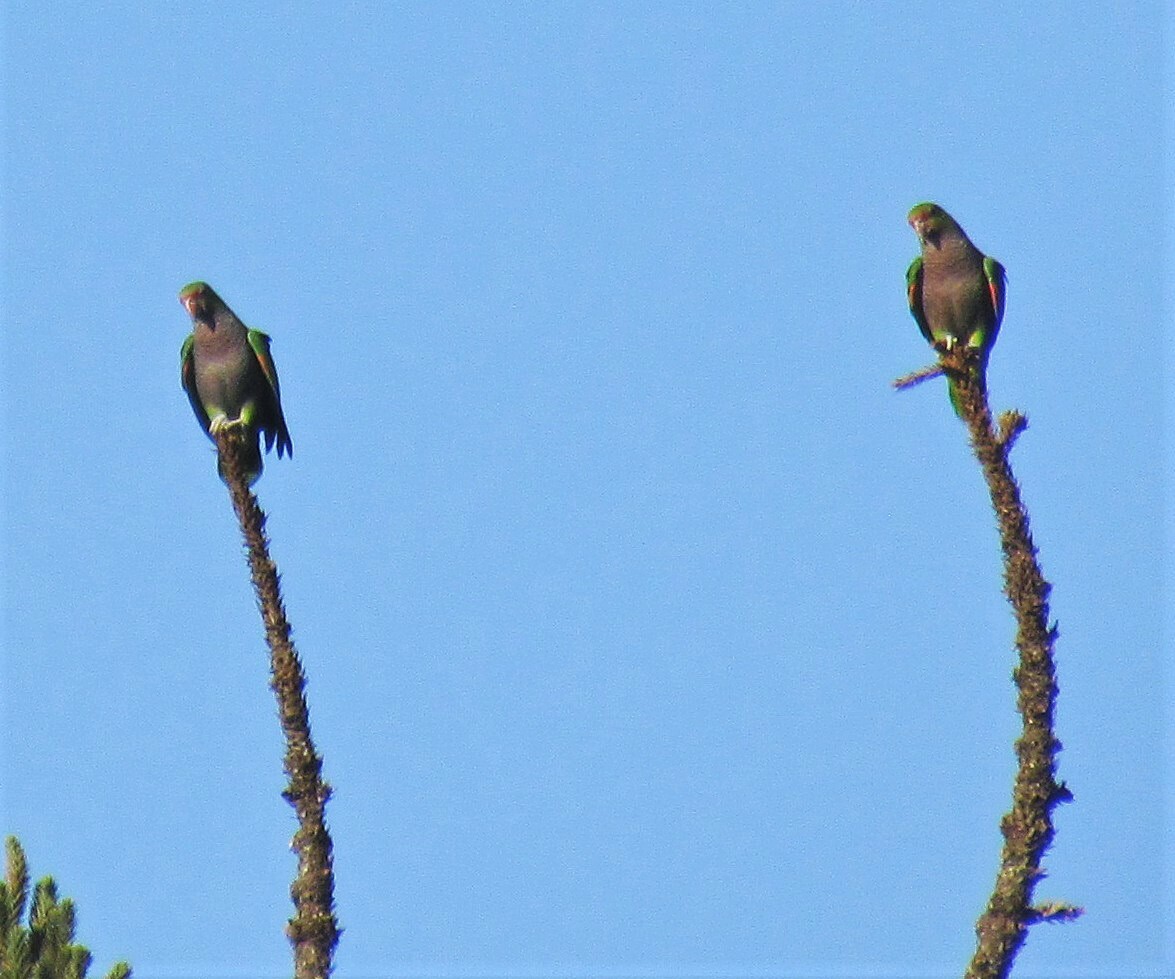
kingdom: Animalia
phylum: Chordata
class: Aves
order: Psittaciformes
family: Psittacidae
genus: Amazona
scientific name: Amazona vinacea
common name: Vinaceous-breasted amazon
